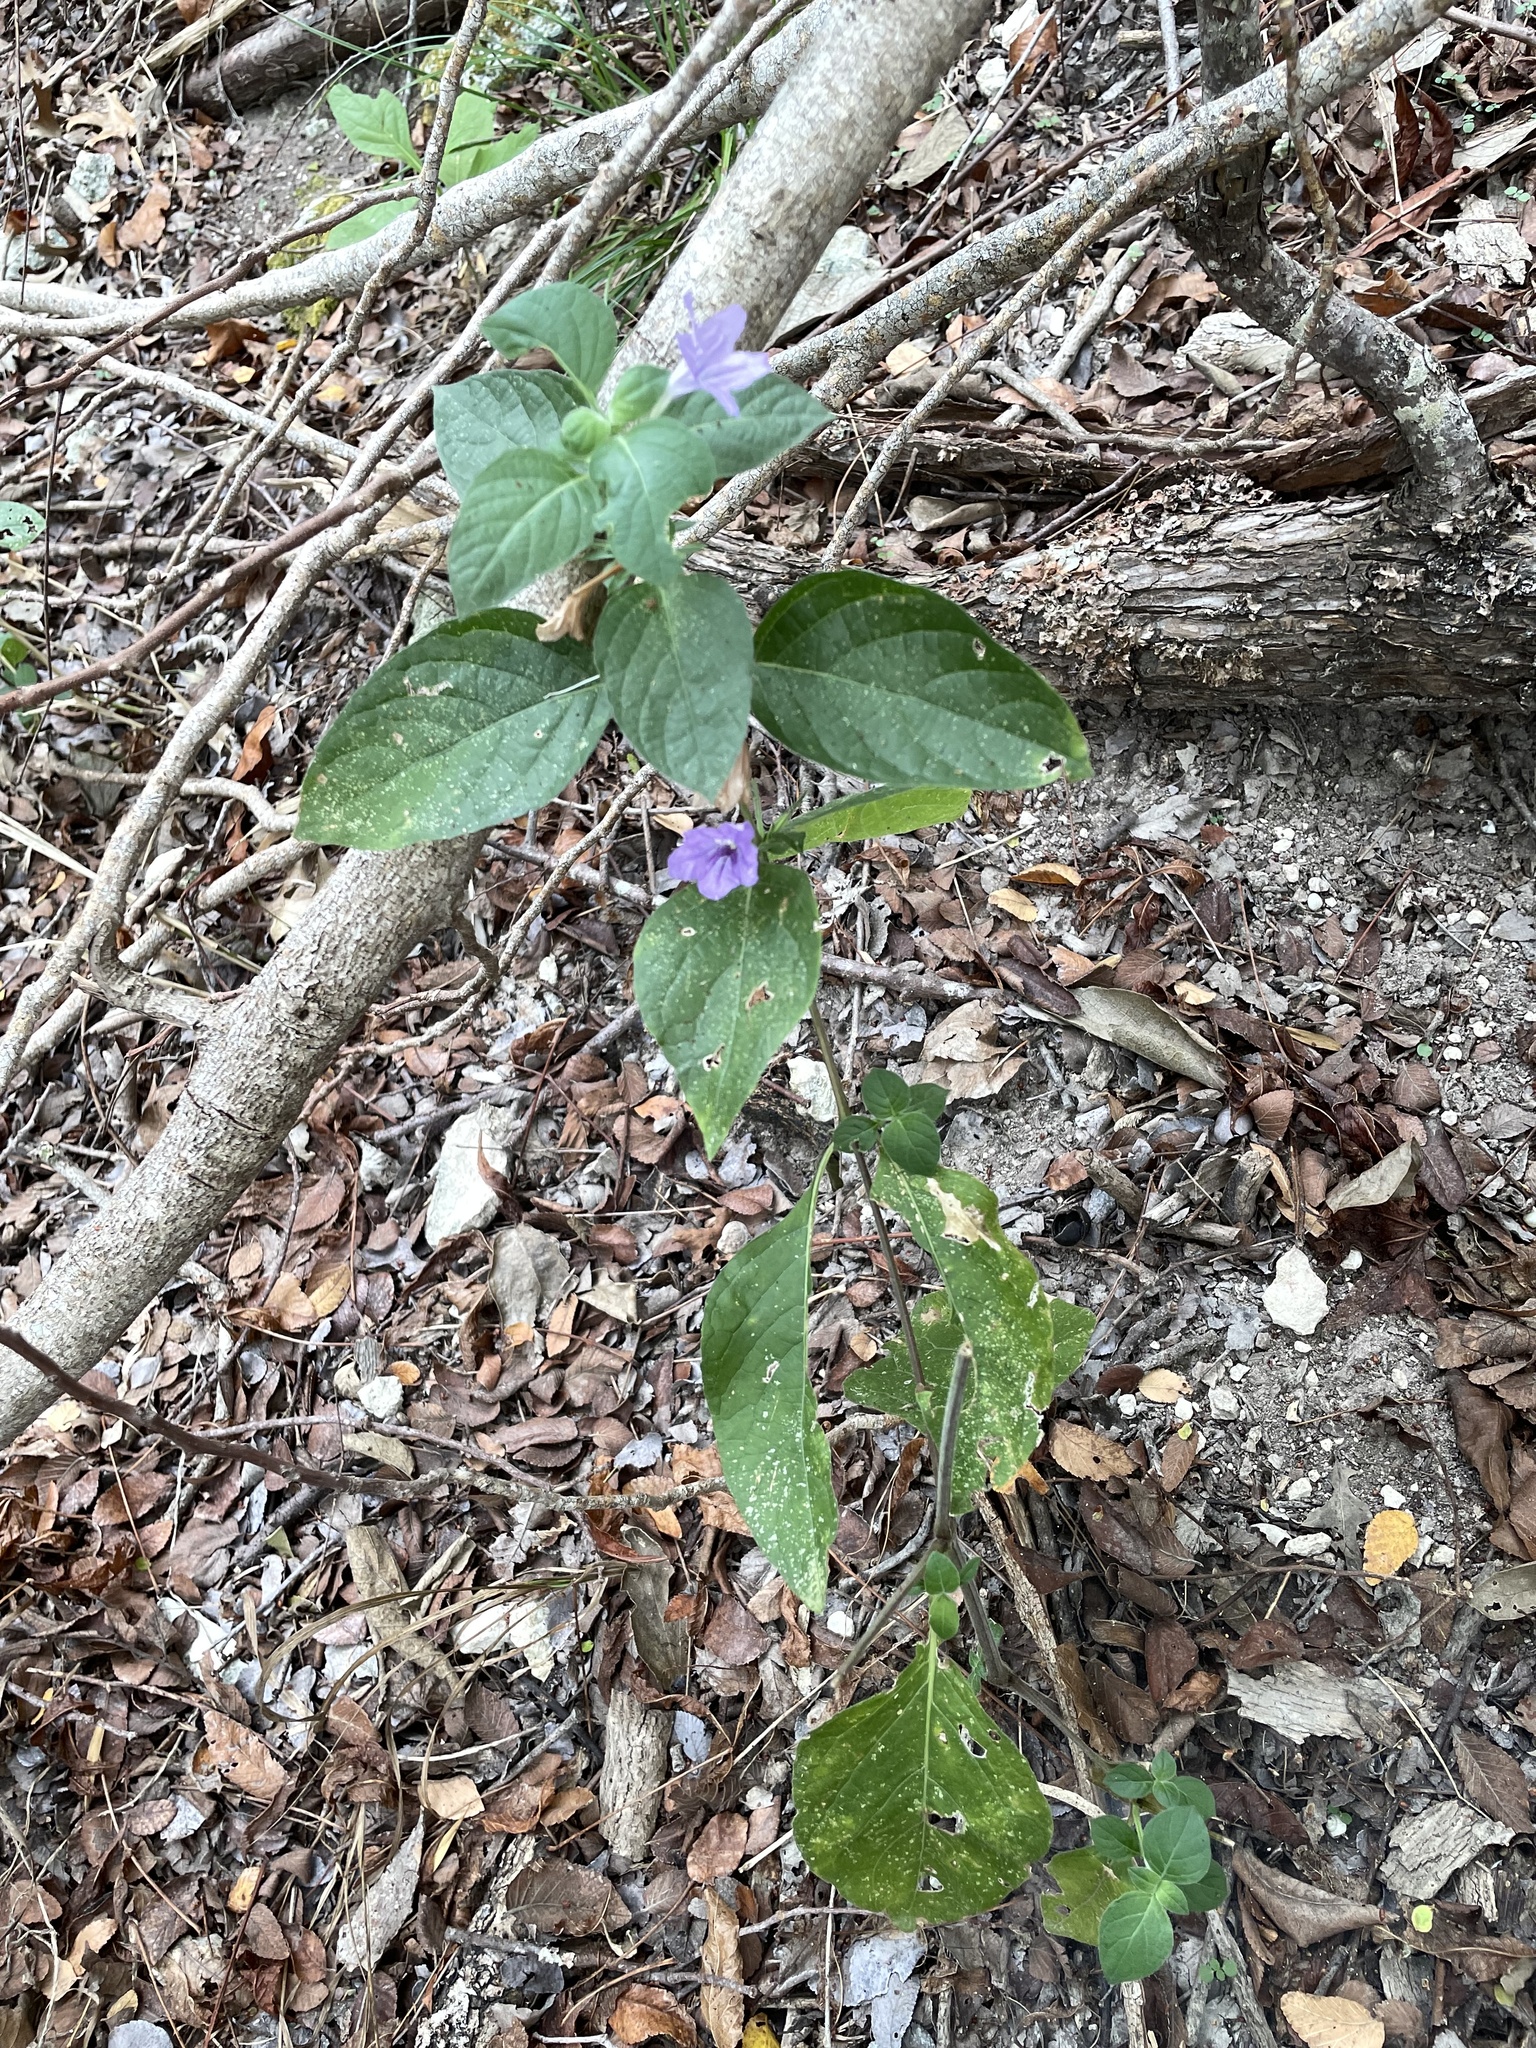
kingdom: Plantae
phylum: Tracheophyta
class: Magnoliopsida
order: Lamiales
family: Acanthaceae
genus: Ruellia
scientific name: Ruellia drummondiana
